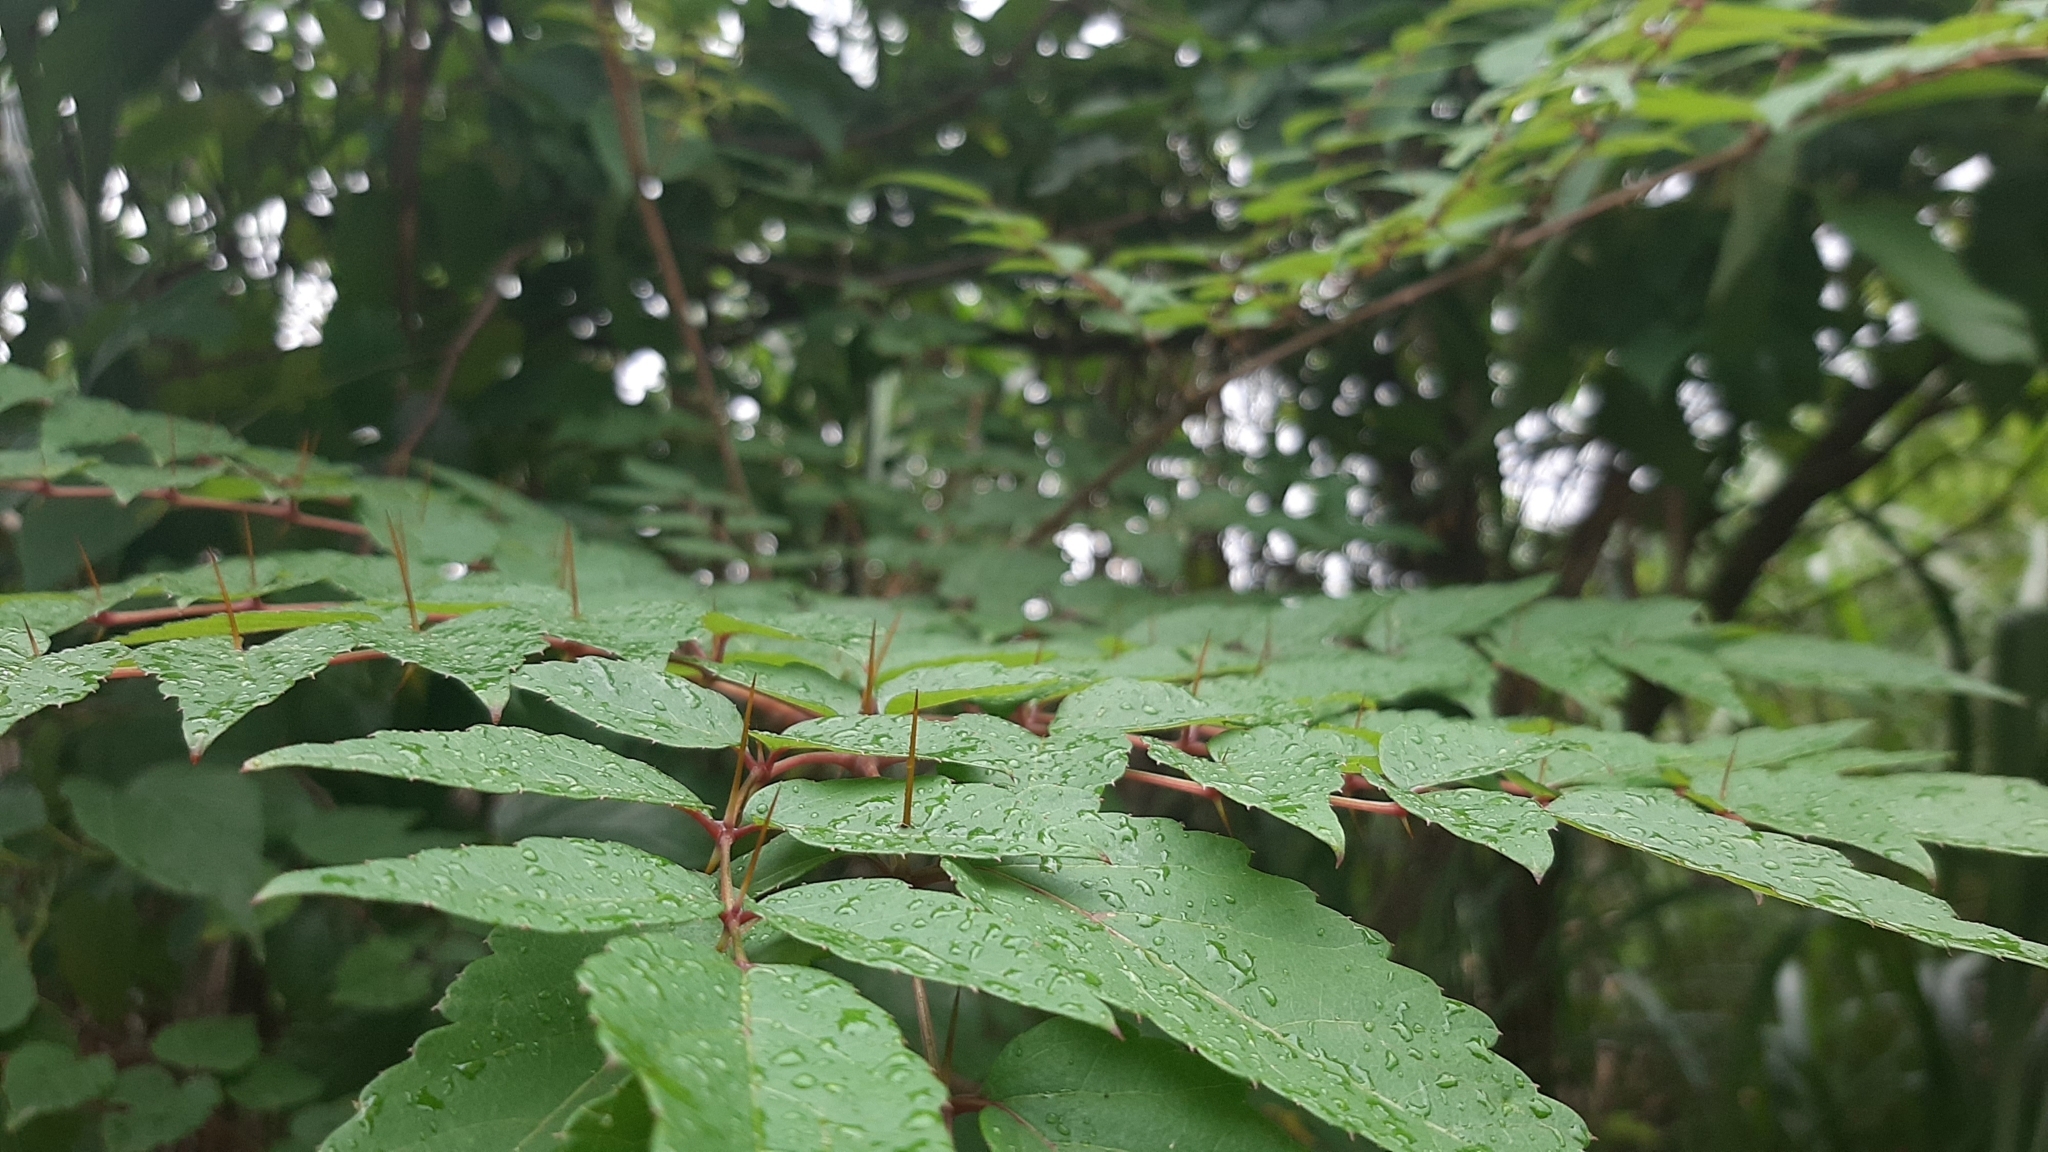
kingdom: Plantae
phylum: Tracheophyta
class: Magnoliopsida
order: Apiales
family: Araliaceae
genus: Aralia
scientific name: Aralia bipinnata
